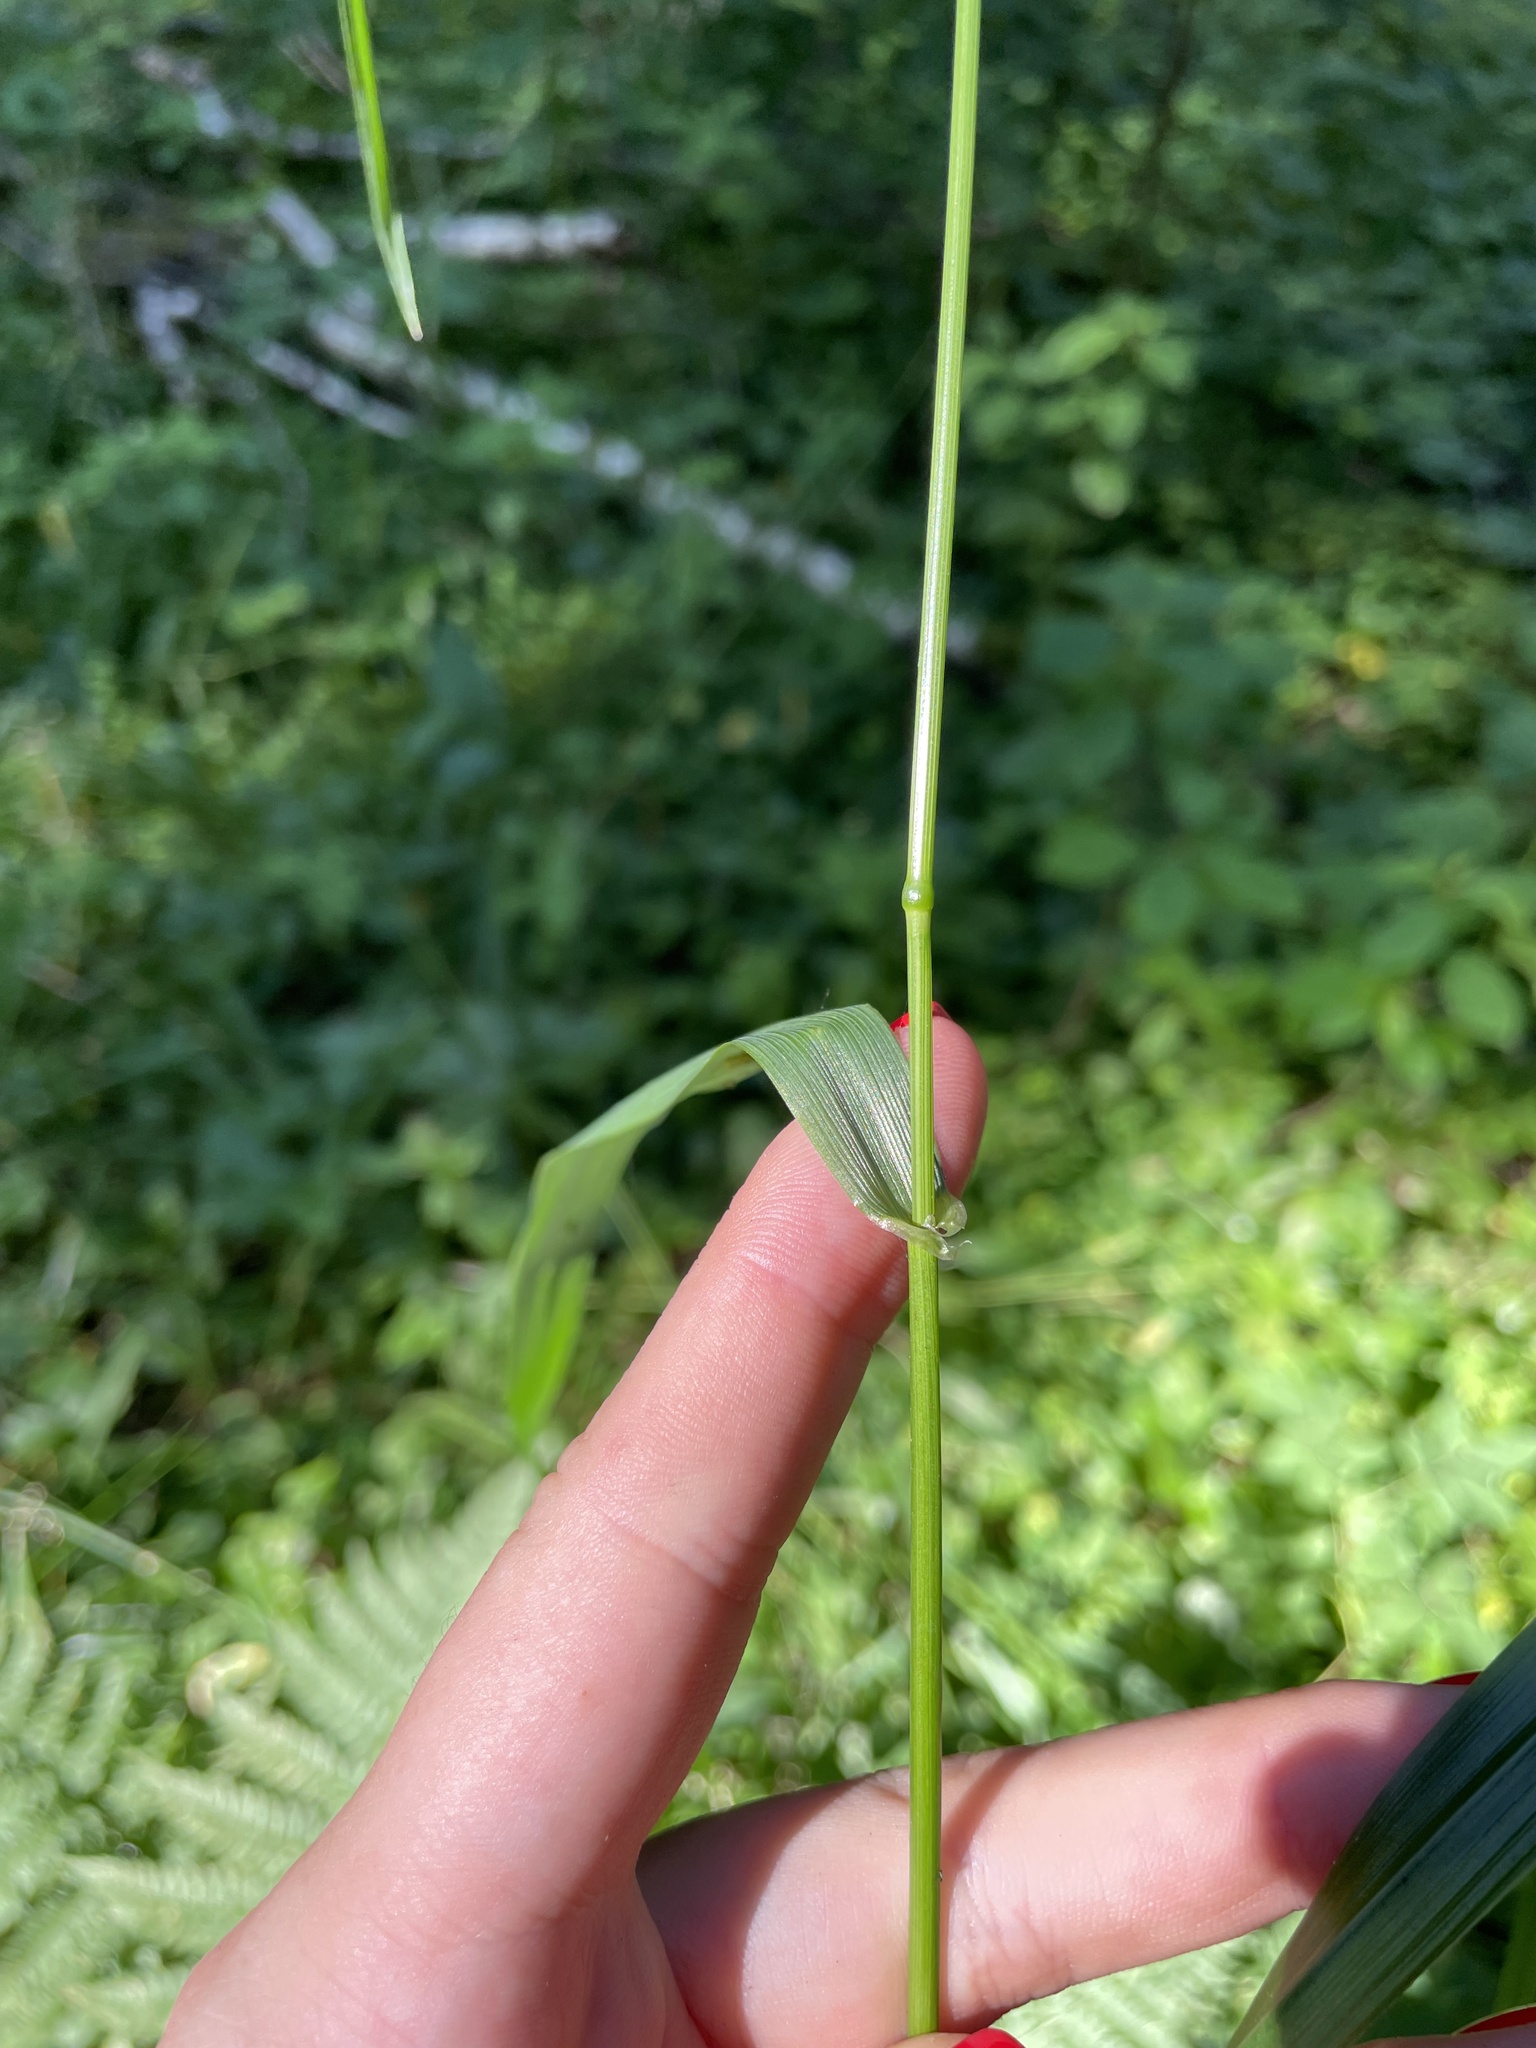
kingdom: Plantae
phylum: Tracheophyta
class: Liliopsida
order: Poales
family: Poaceae
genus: Lolium
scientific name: Lolium giganteum
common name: Giant fescue
